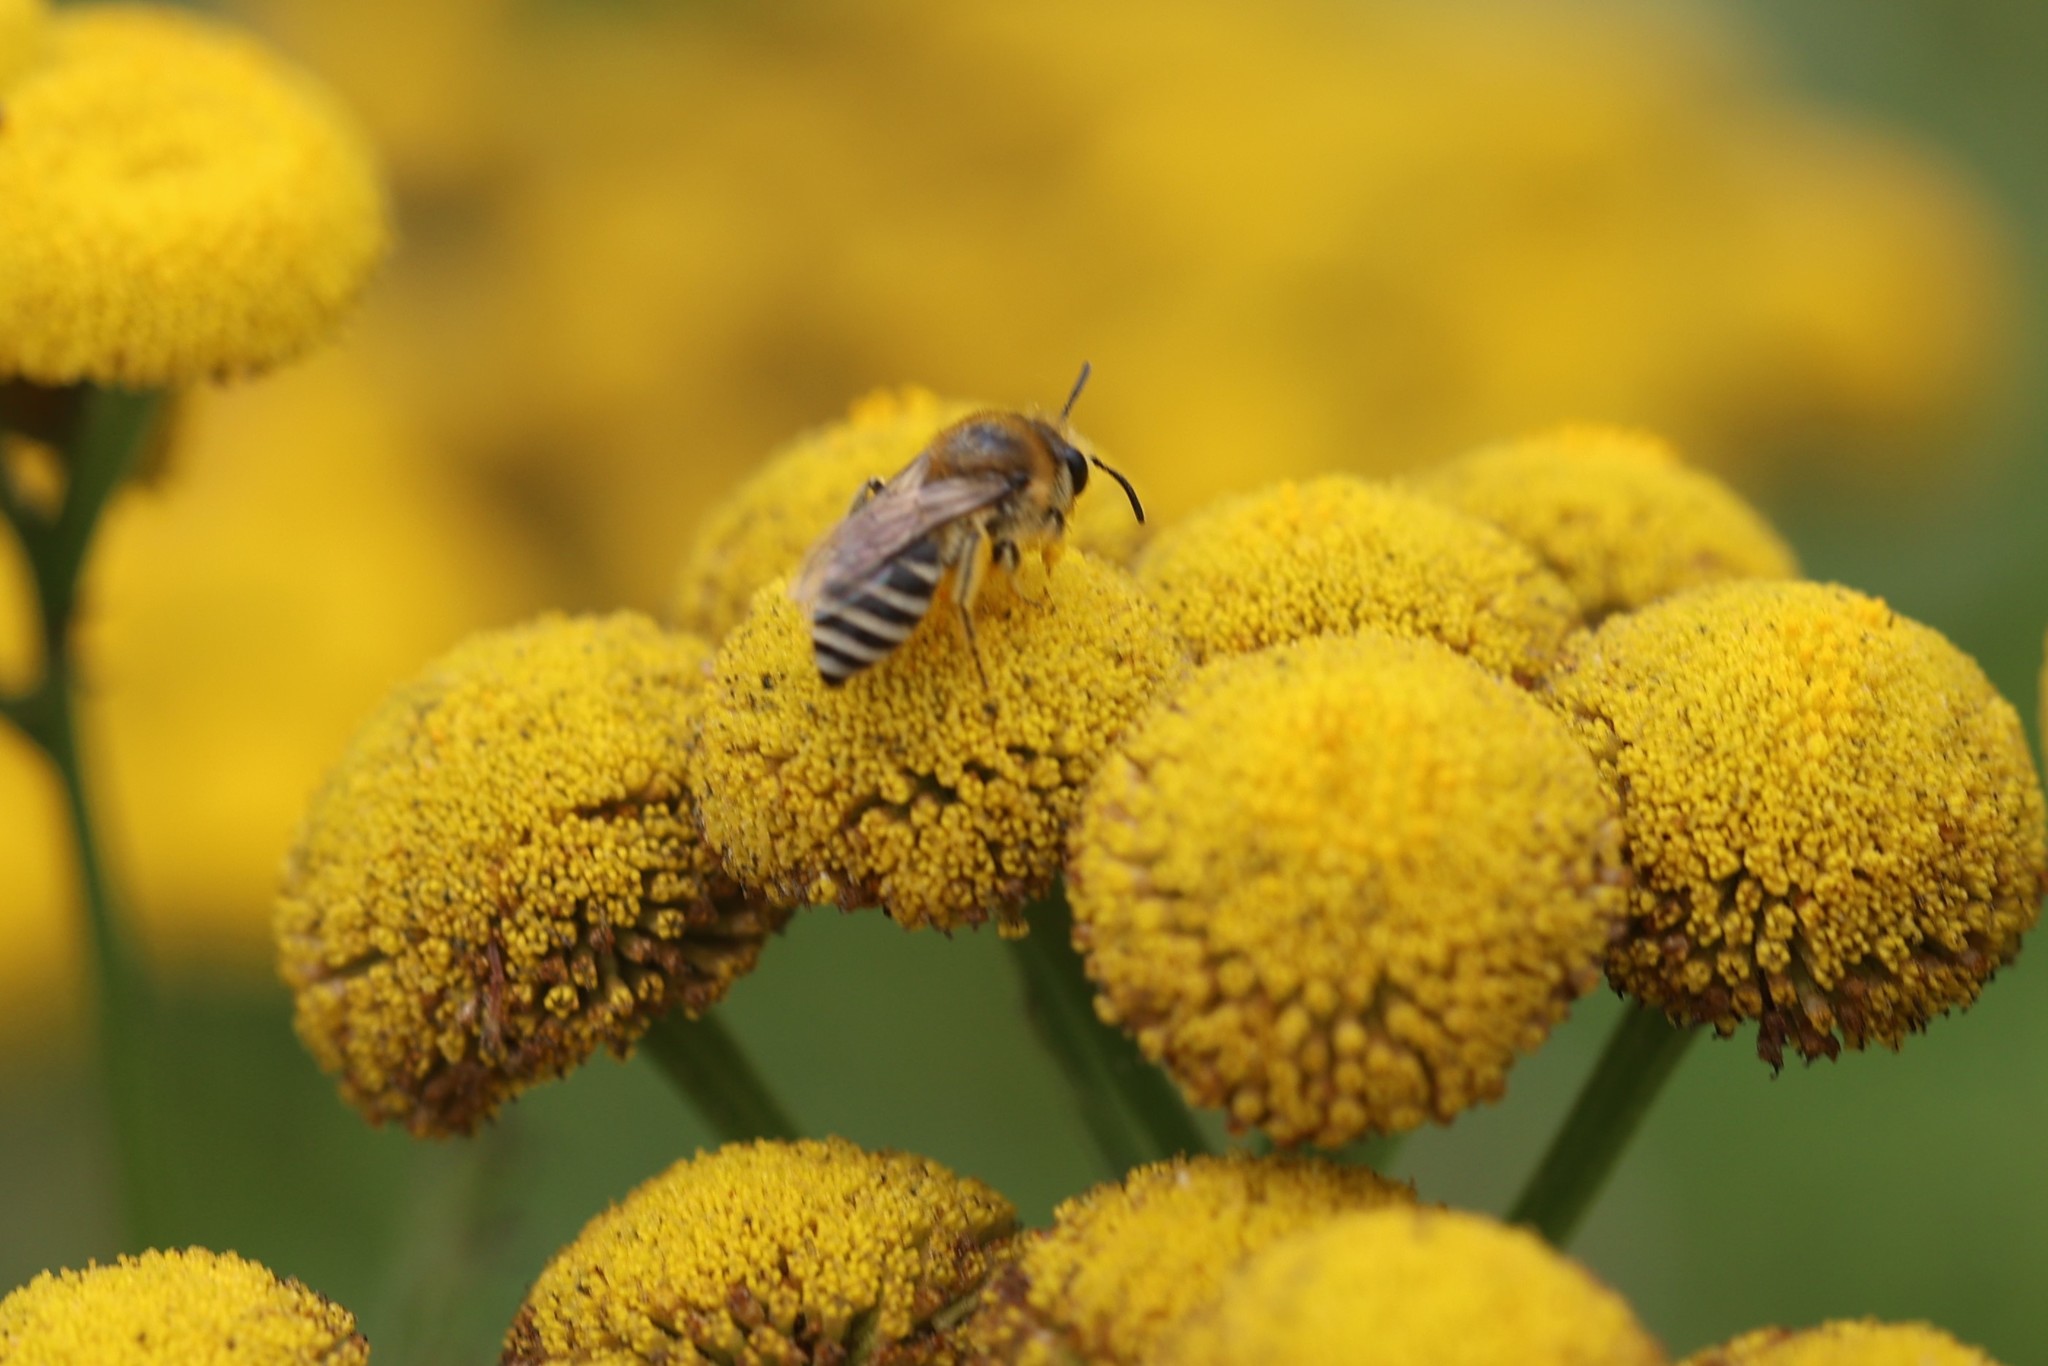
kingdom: Animalia
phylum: Arthropoda
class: Insecta
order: Hymenoptera
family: Colletidae
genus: Colletes
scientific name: Colletes
